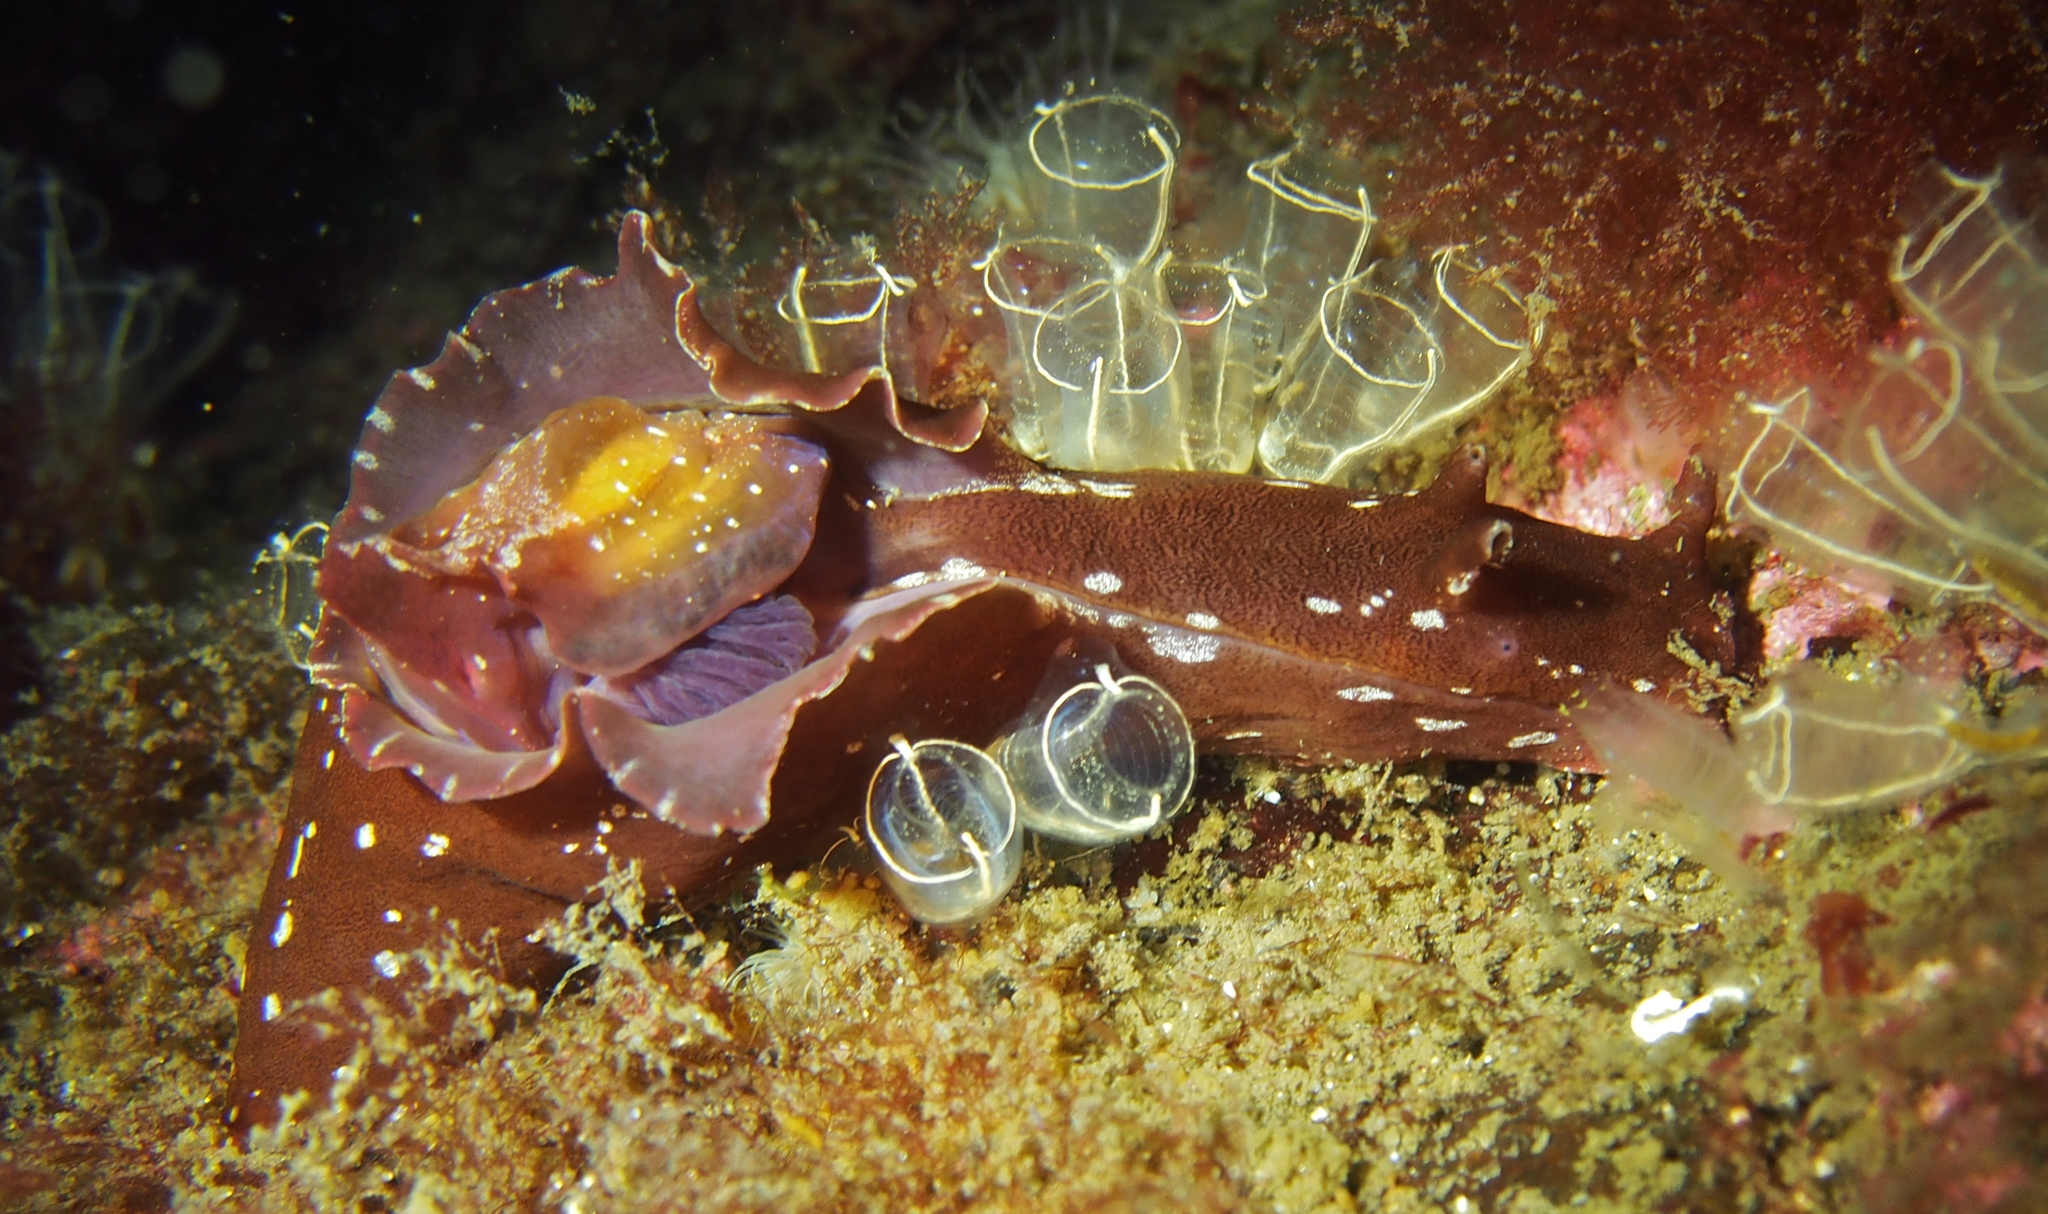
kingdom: Animalia
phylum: Mollusca
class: Gastropoda
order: Aplysiida
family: Aplysiidae
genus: Aplysia
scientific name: Aplysia punctata
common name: Common sea hare
